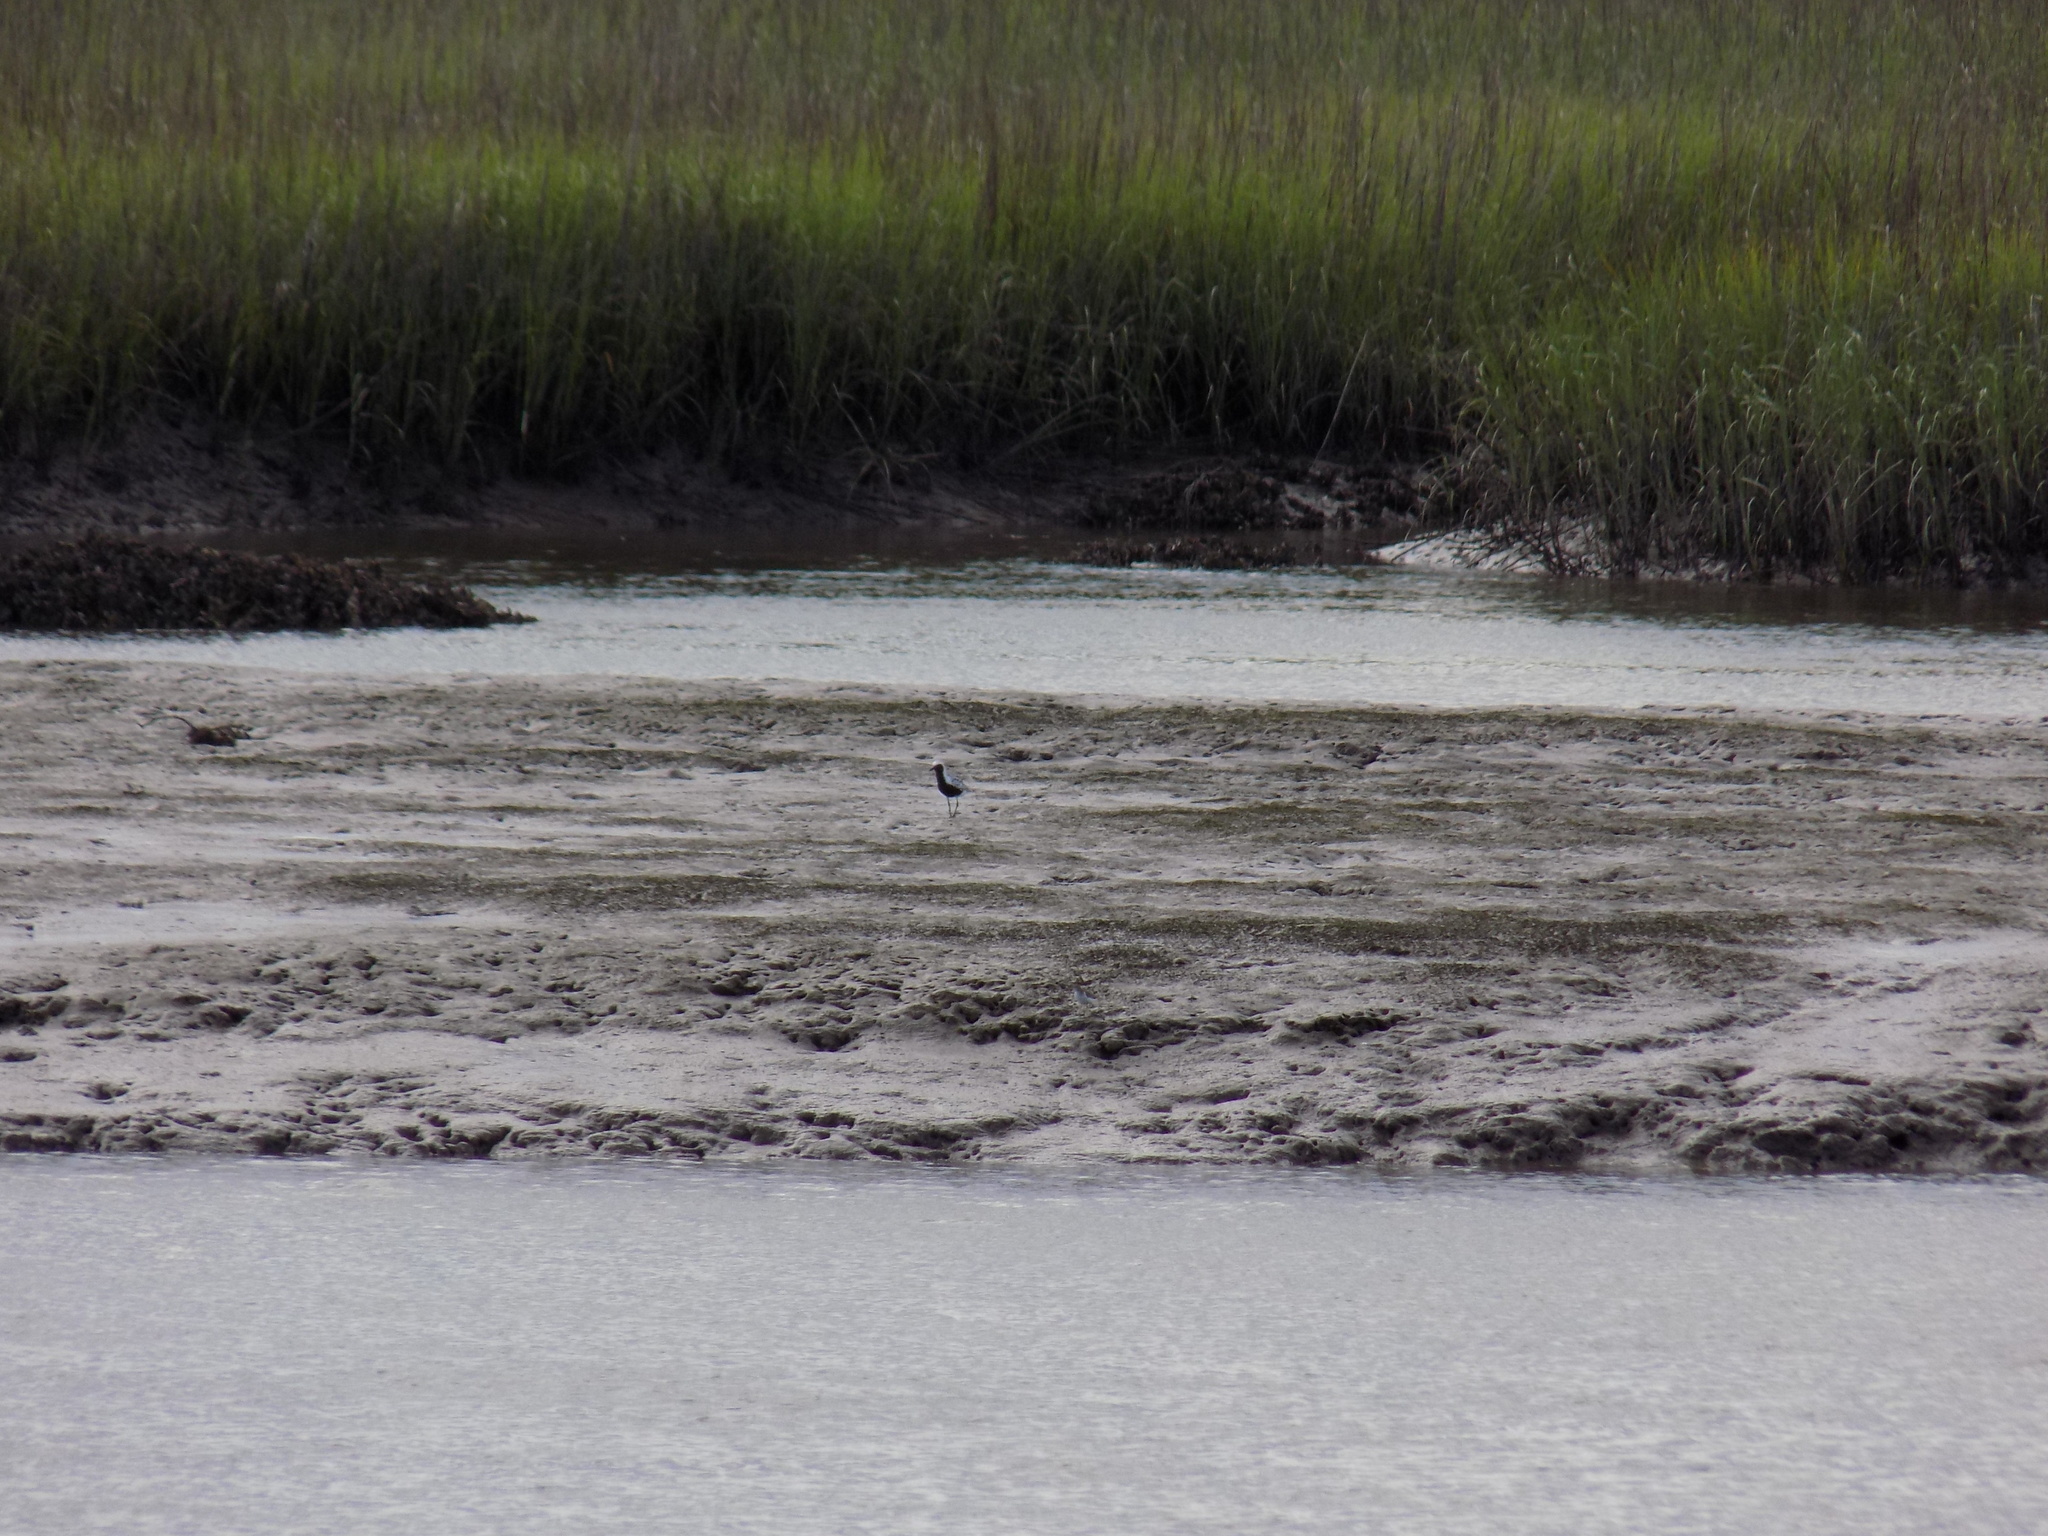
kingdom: Animalia
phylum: Chordata
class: Aves
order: Charadriiformes
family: Charadriidae
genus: Pluvialis
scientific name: Pluvialis squatarola
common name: Grey plover
